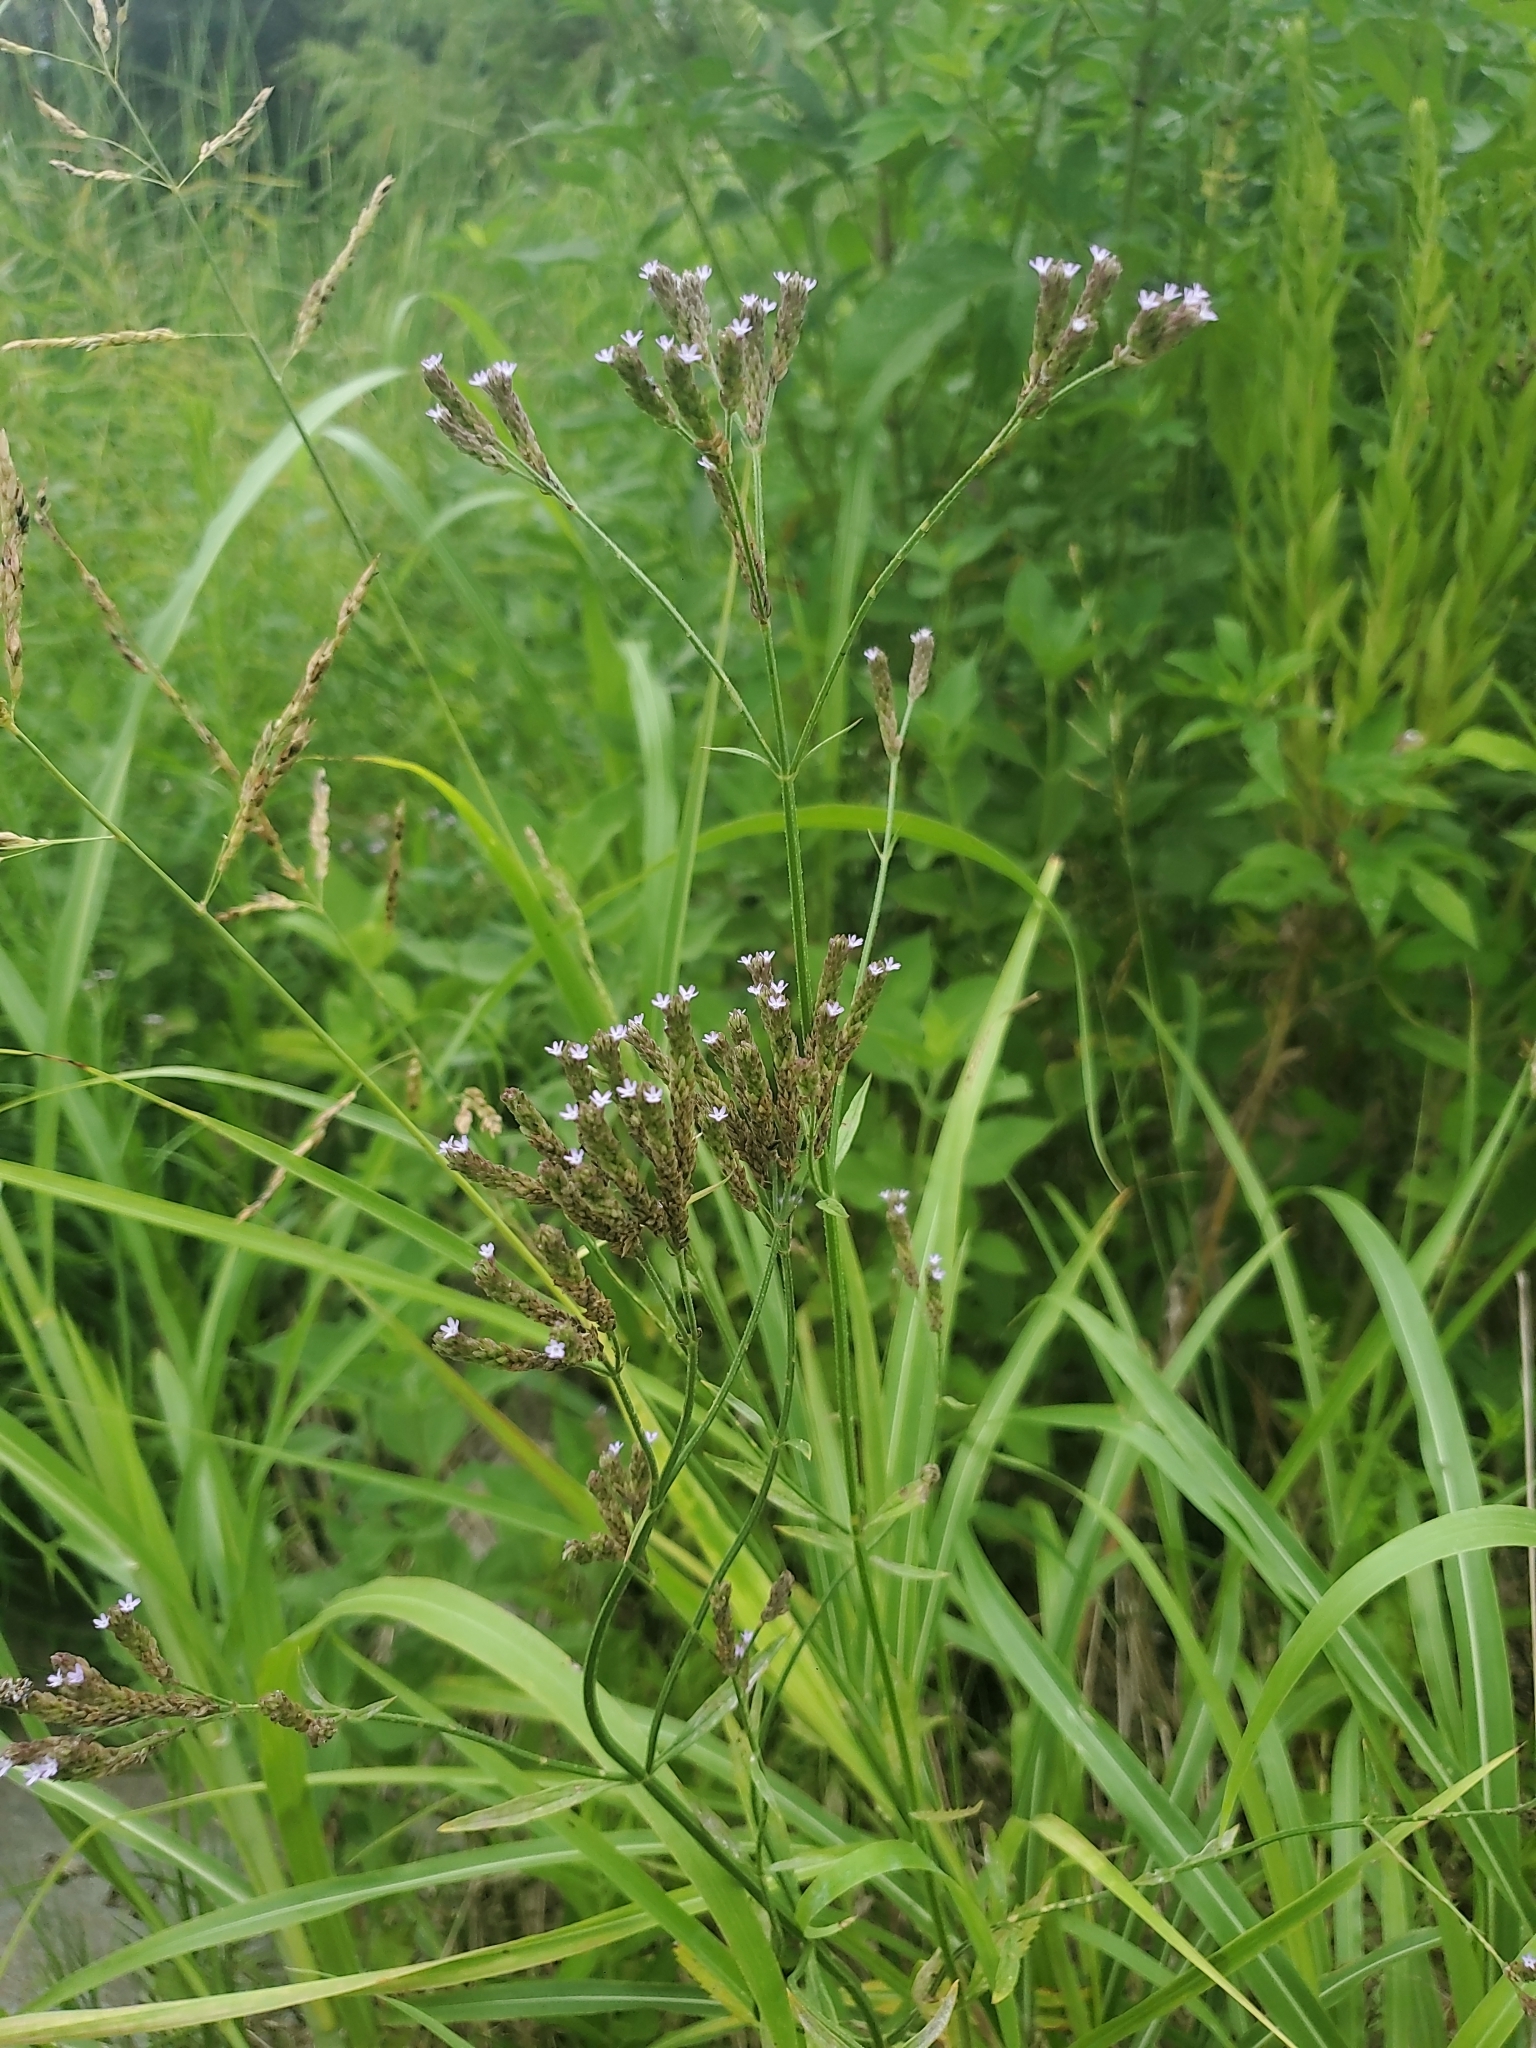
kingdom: Plantae
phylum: Tracheophyta
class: Magnoliopsida
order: Lamiales
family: Verbenaceae
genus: Verbena
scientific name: Verbena brasiliensis
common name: Brazilian vervain
